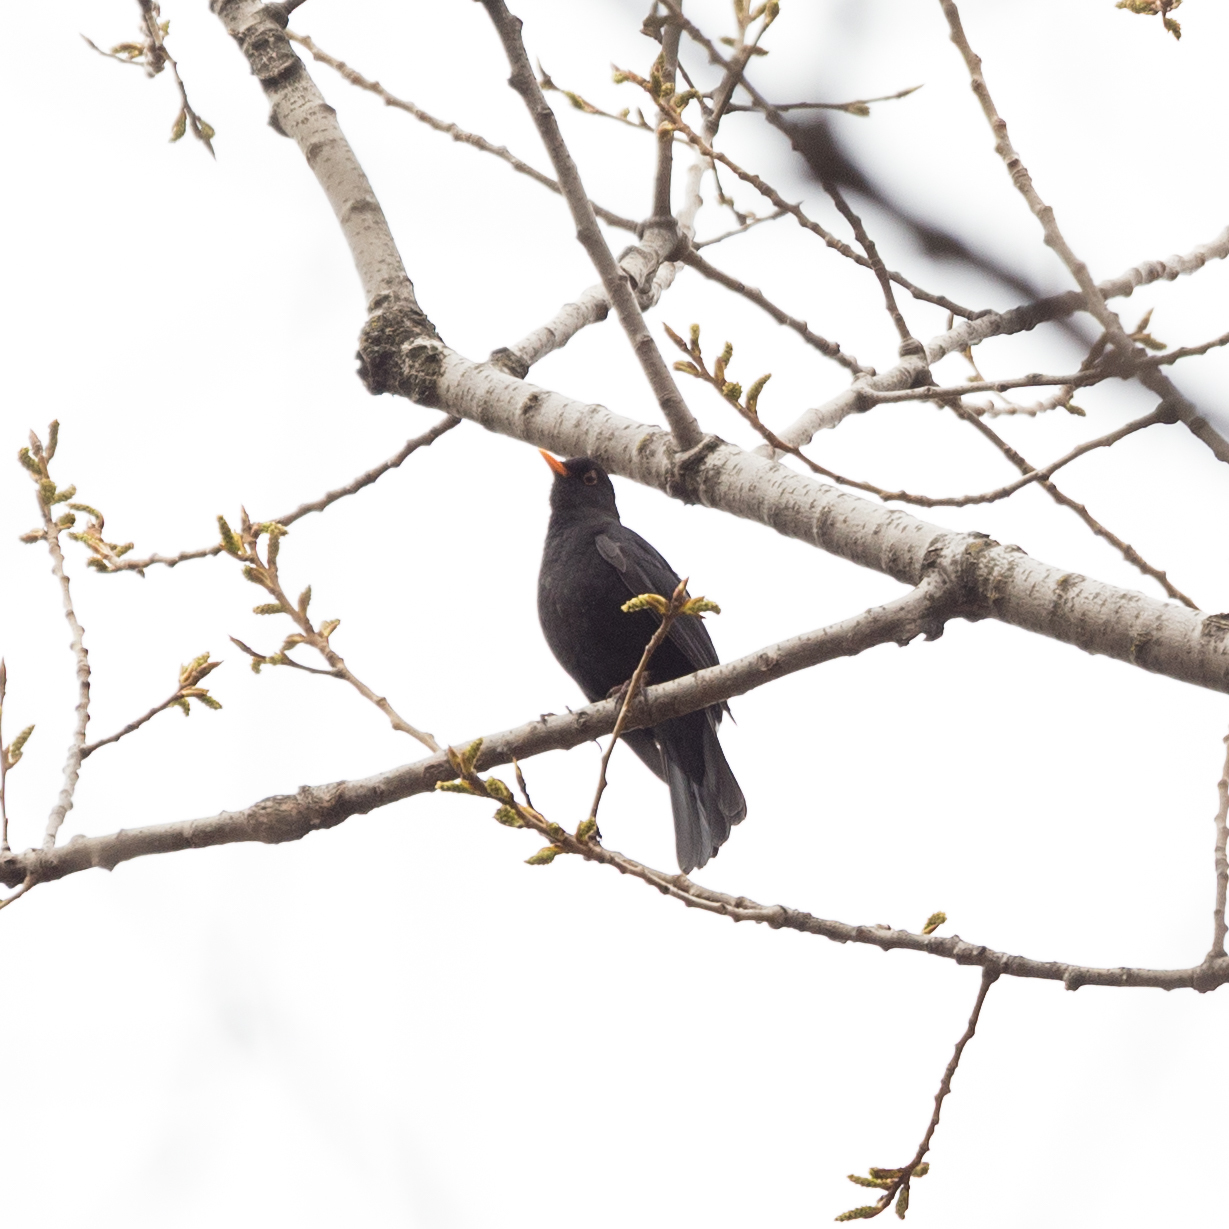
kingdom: Animalia
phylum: Chordata
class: Aves
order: Passeriformes
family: Turdidae
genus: Turdus
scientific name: Turdus merula
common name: Common blackbird
